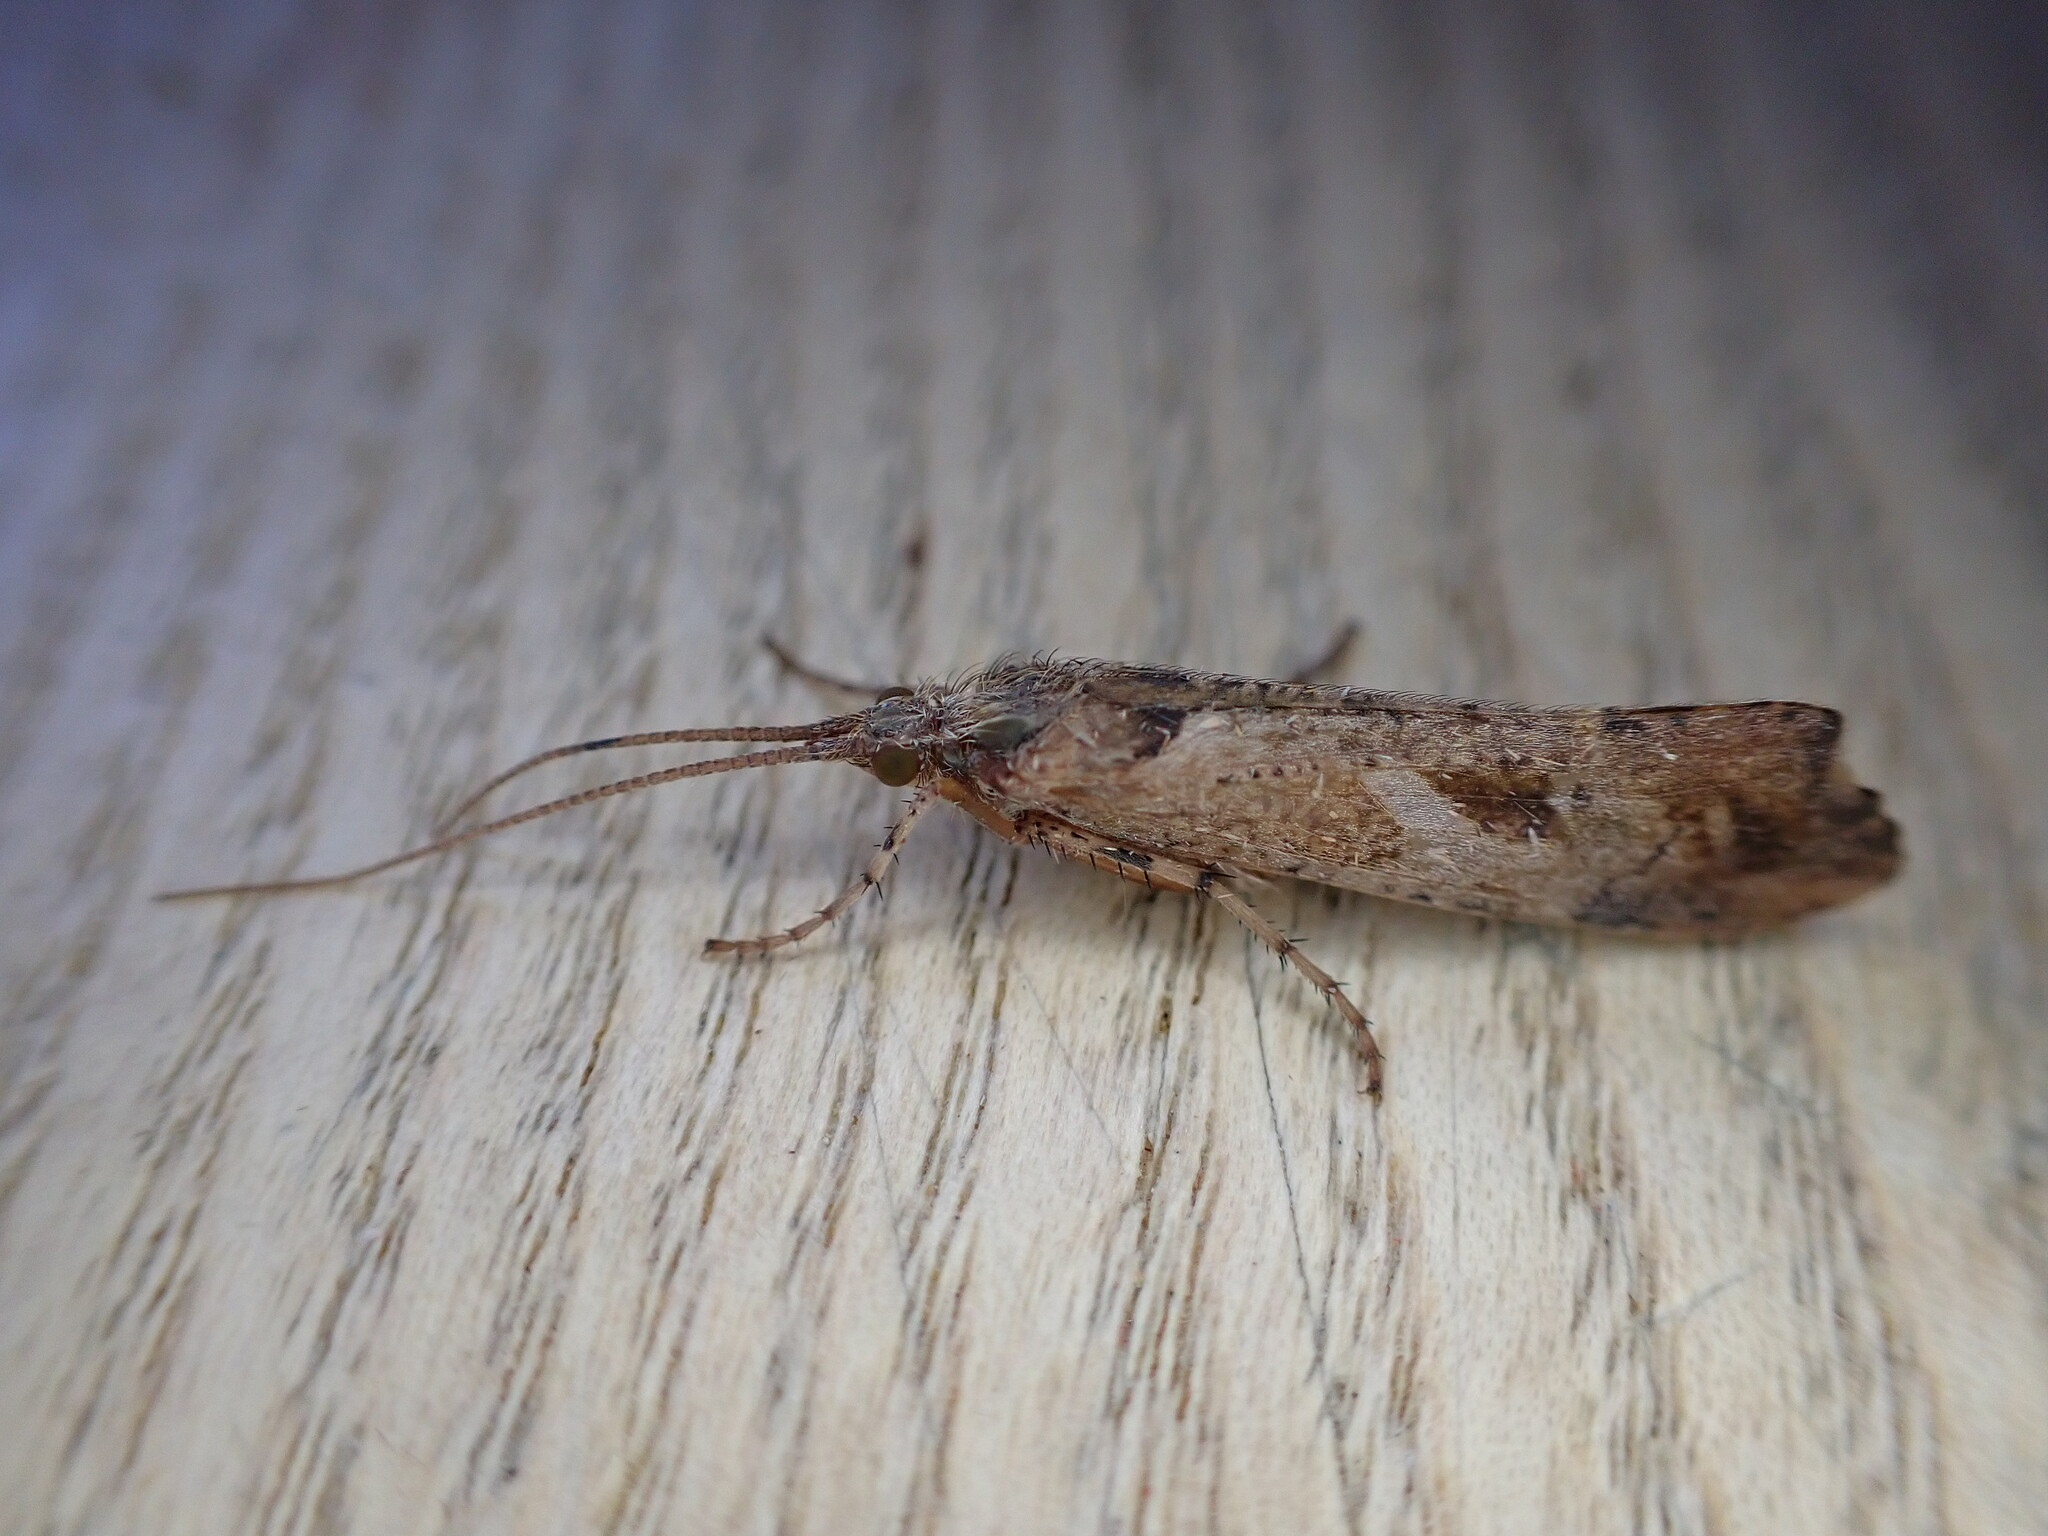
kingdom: Animalia
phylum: Arthropoda
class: Insecta
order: Trichoptera
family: Limnephilidae
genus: Glyphotaelius
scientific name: Glyphotaelius pellucidus
